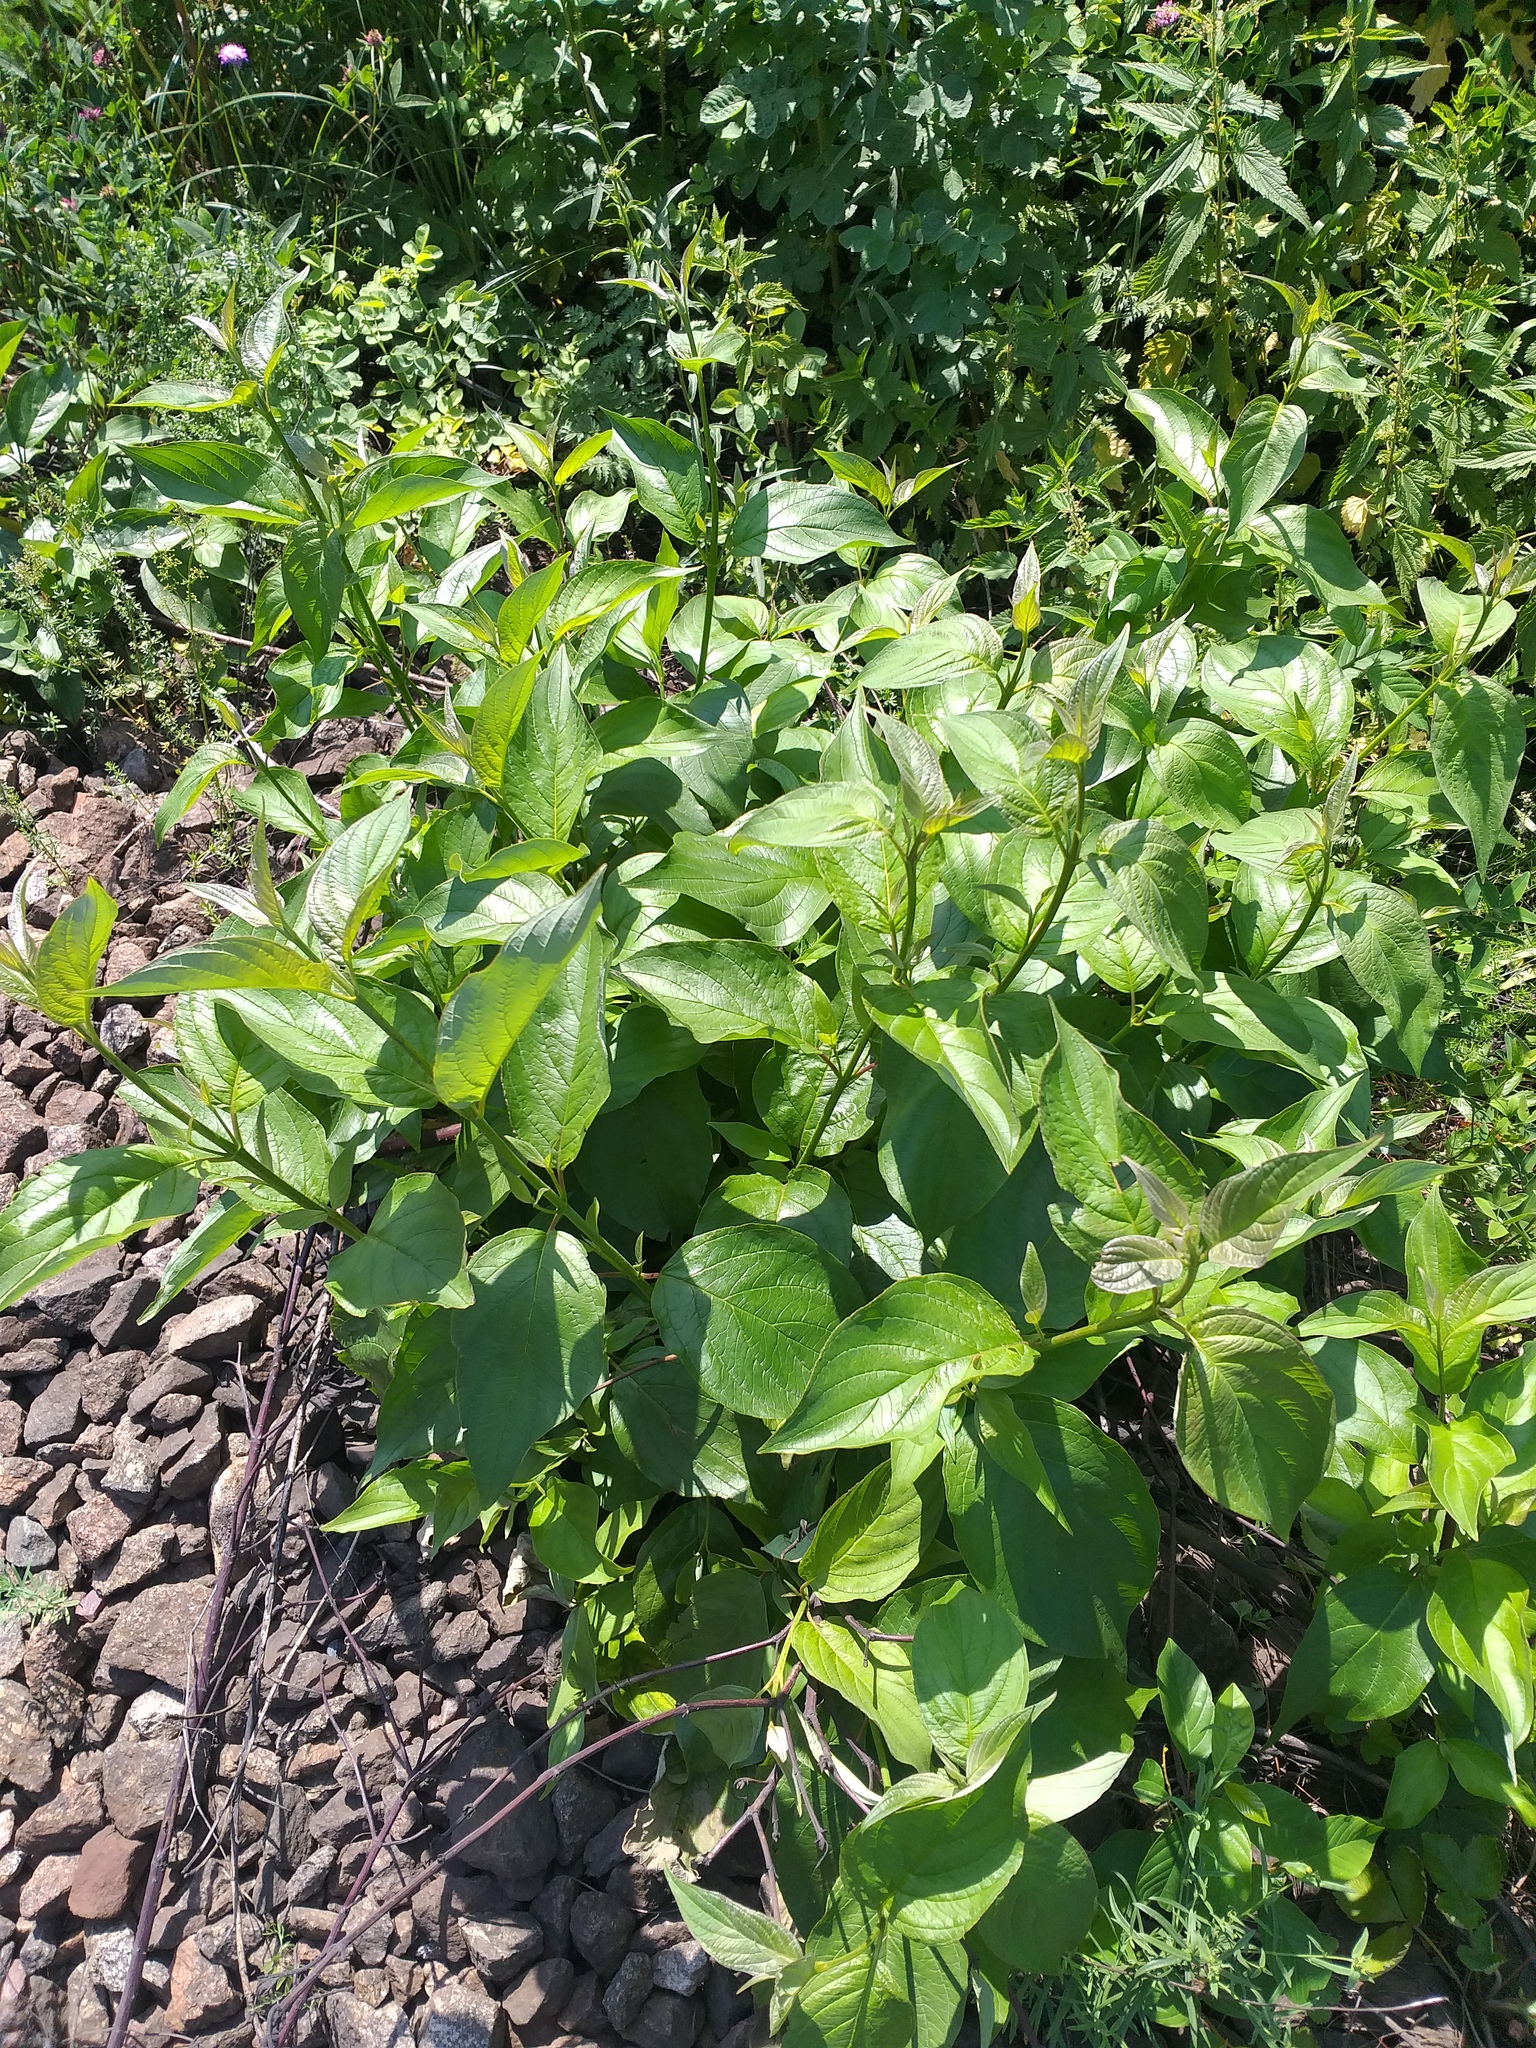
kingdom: Plantae
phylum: Tracheophyta
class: Magnoliopsida
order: Cornales
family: Cornaceae
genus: Cornus
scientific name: Cornus alba
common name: White dogwood
